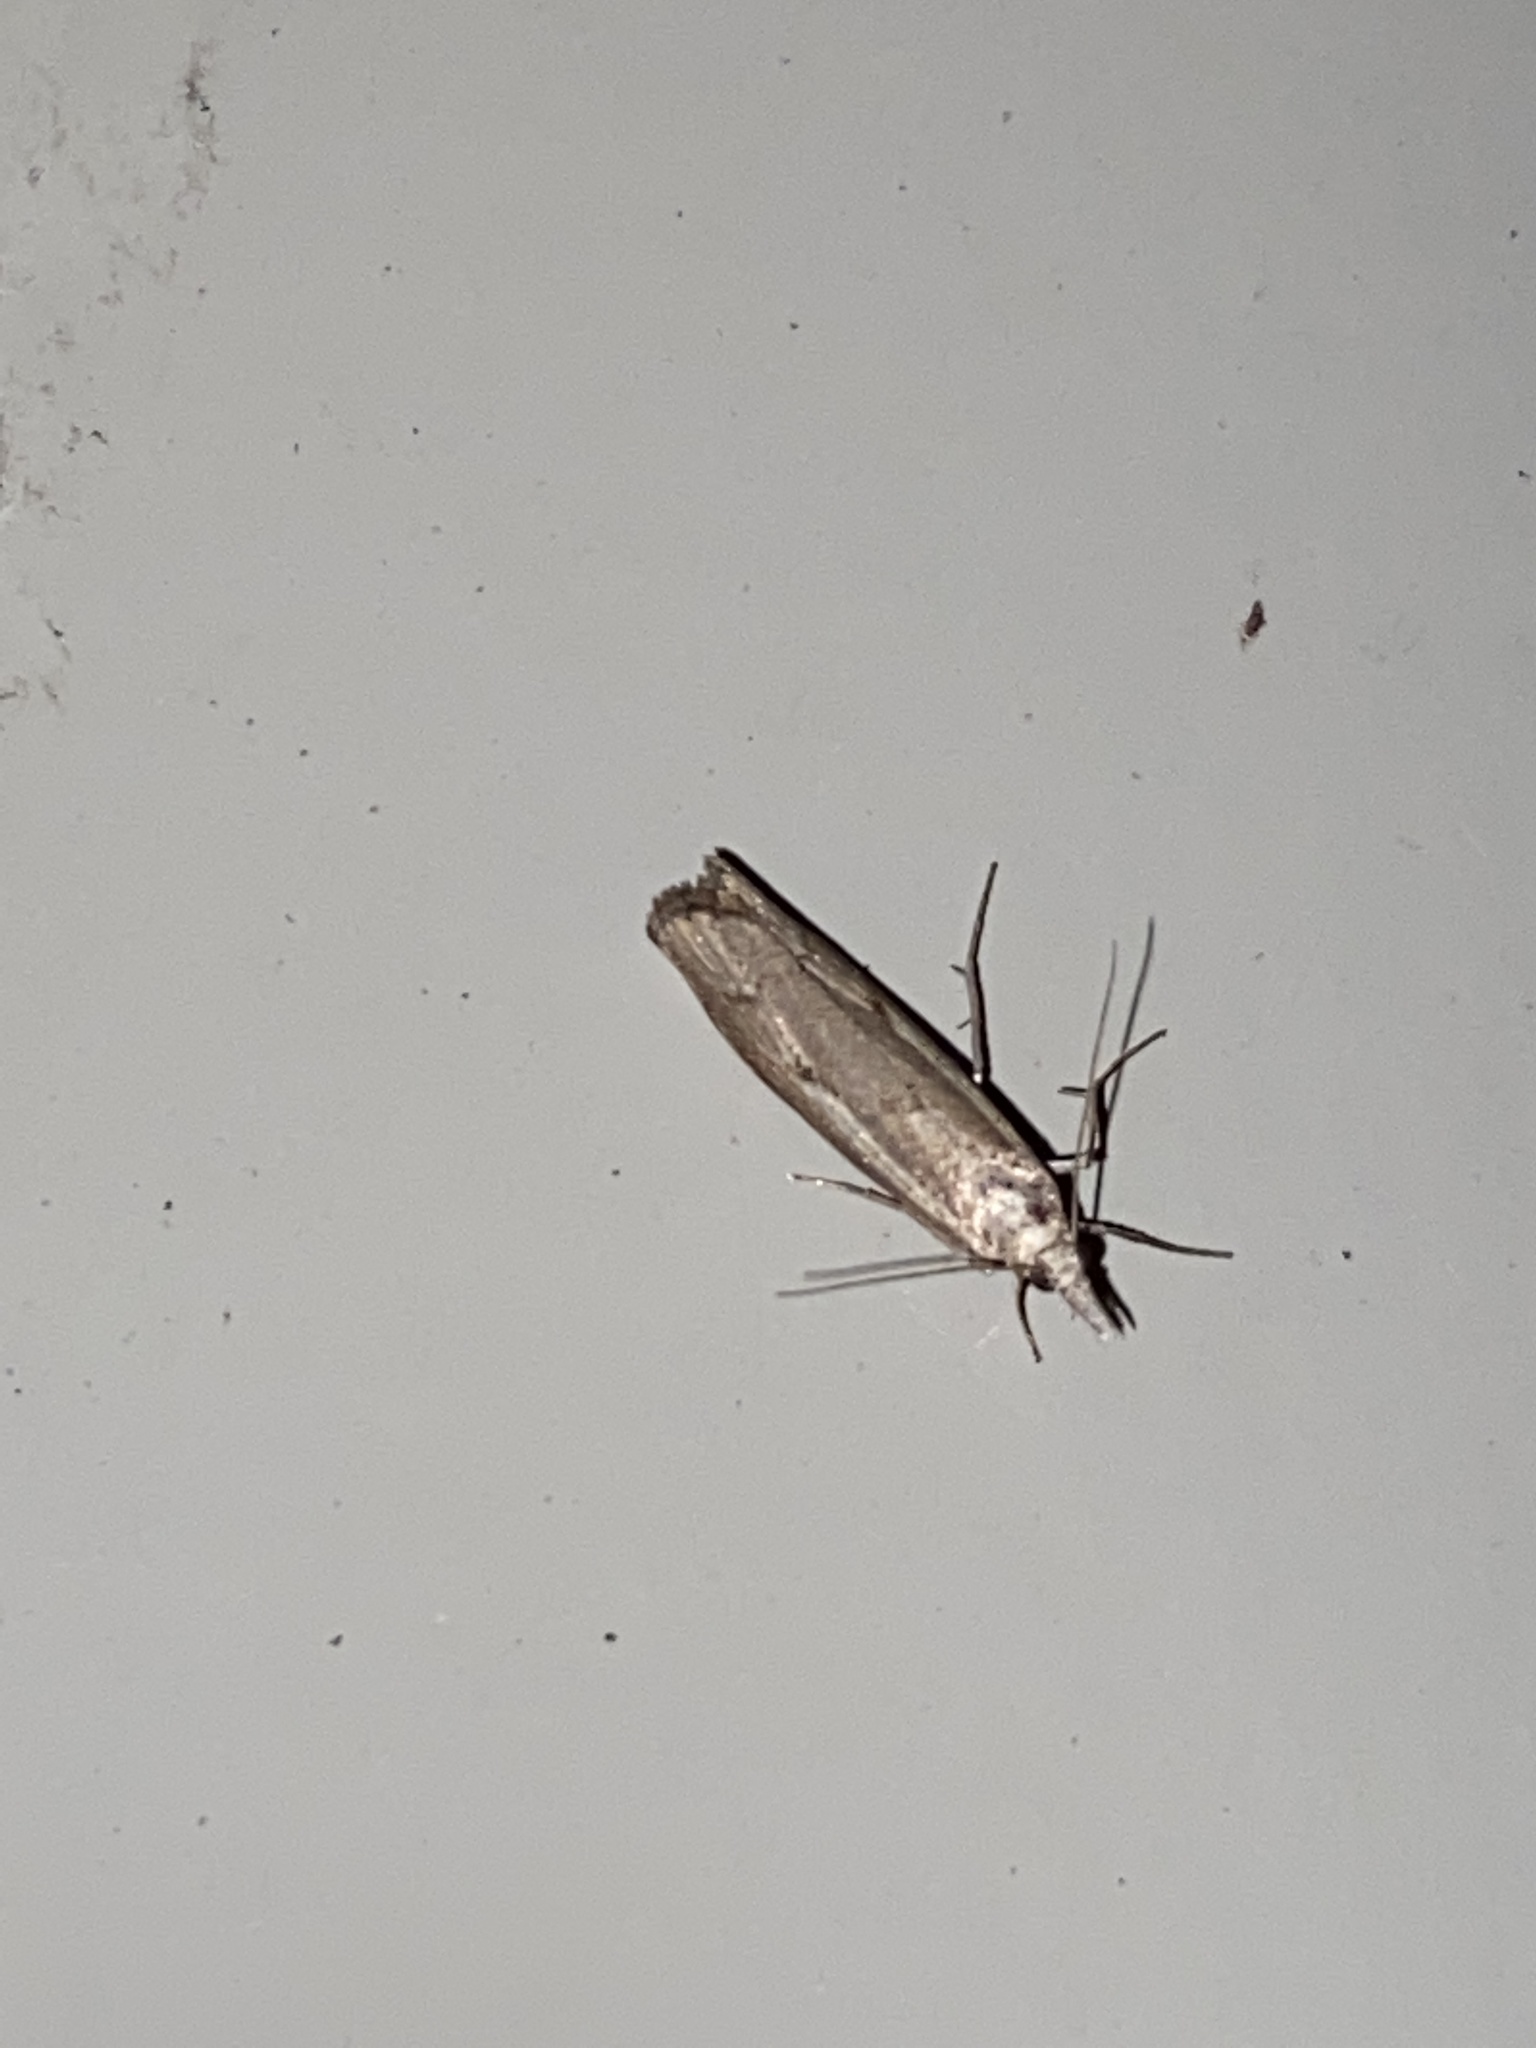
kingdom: Animalia
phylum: Arthropoda
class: Insecta
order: Lepidoptera
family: Crambidae
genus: Agriphila
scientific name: Agriphila geniculea
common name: Elbow-stripe grass-veneer
